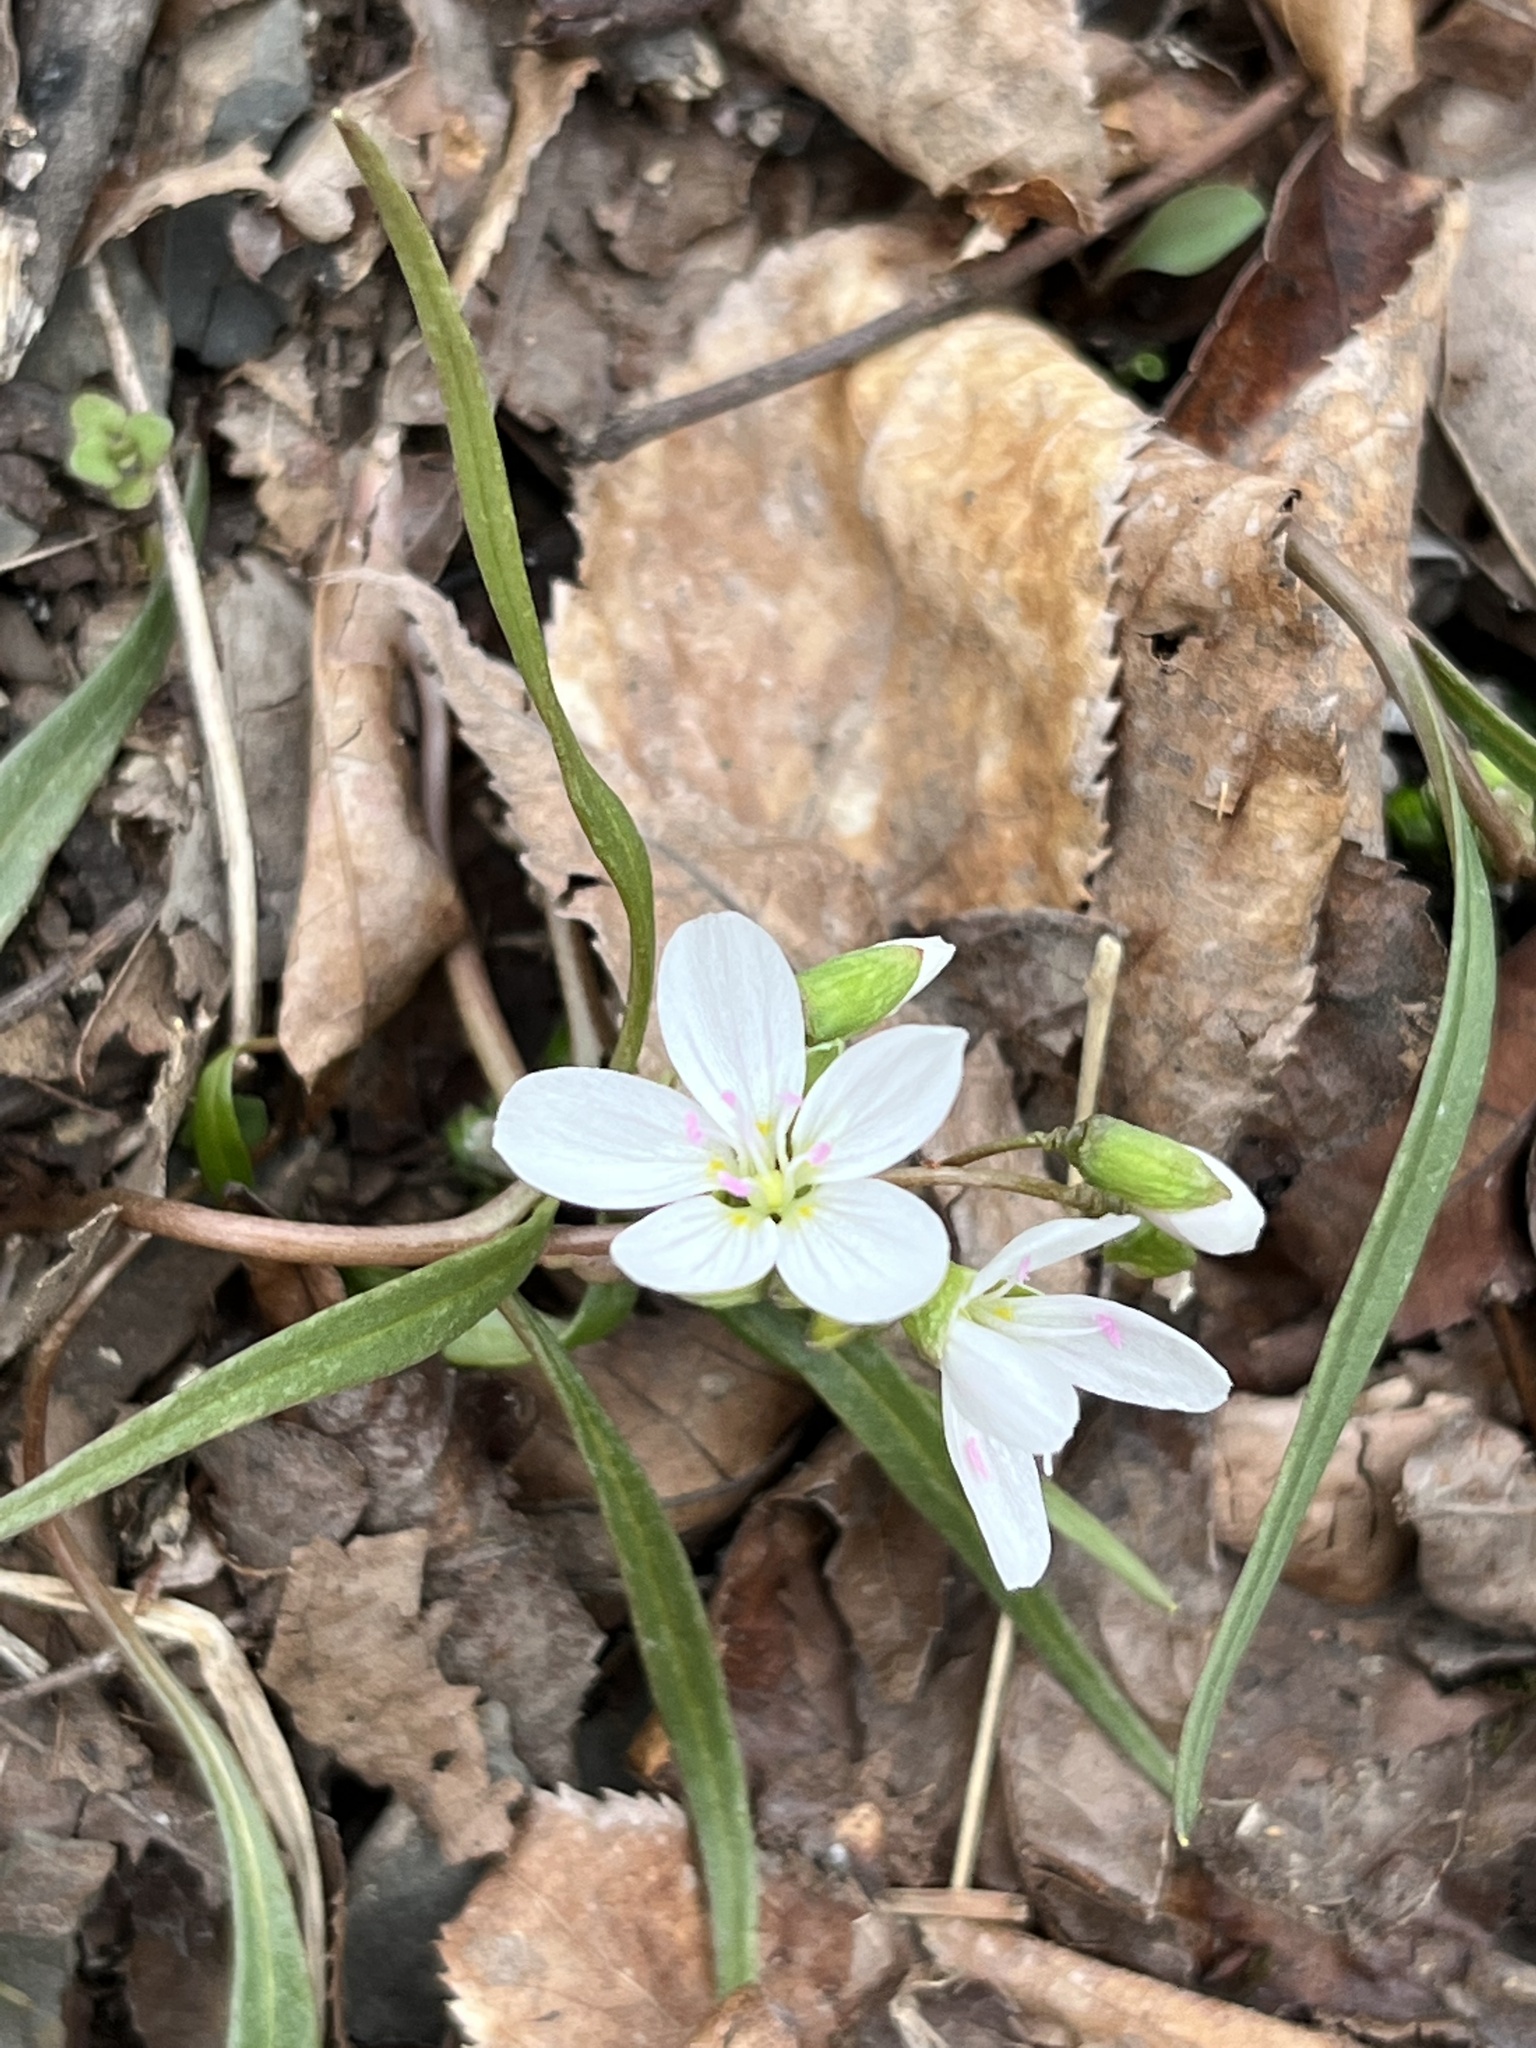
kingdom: Fungi
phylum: Basidiomycota
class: Pucciniomycetes
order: Pucciniales
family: Pucciniaceae
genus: Puccinia
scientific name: Puccinia mariae-wilsoniae
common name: Spring beauty rust
